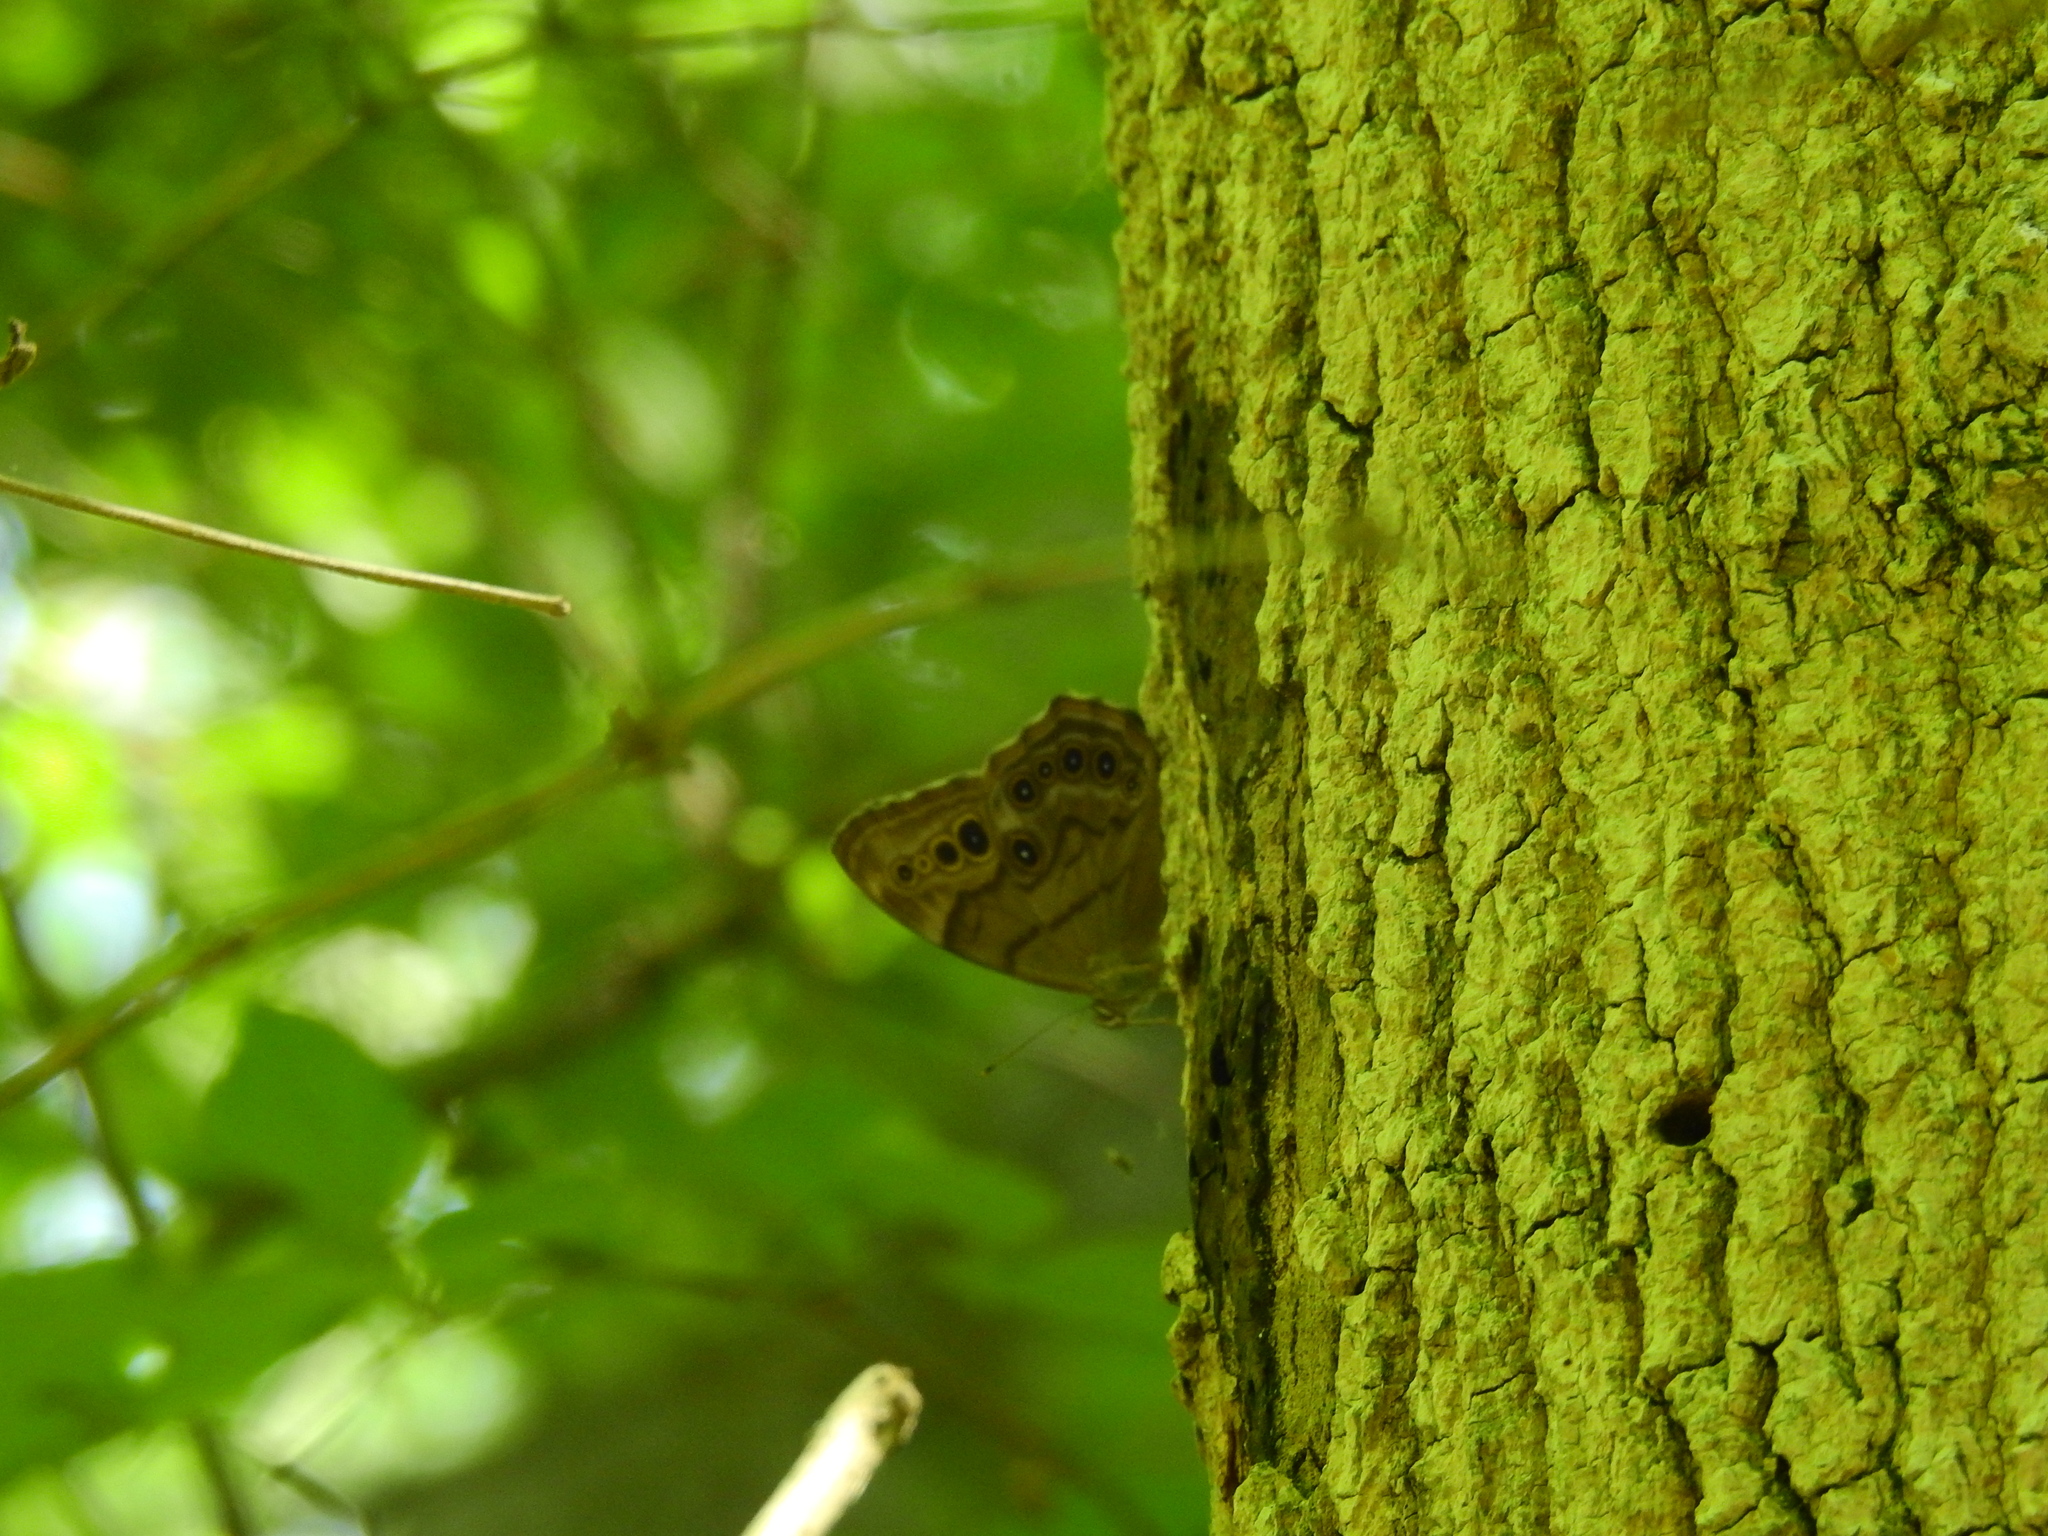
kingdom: Animalia
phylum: Arthropoda
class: Insecta
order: Lepidoptera
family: Nymphalidae
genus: Lethe
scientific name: Lethe anthedon
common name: Northern pearly-eye
